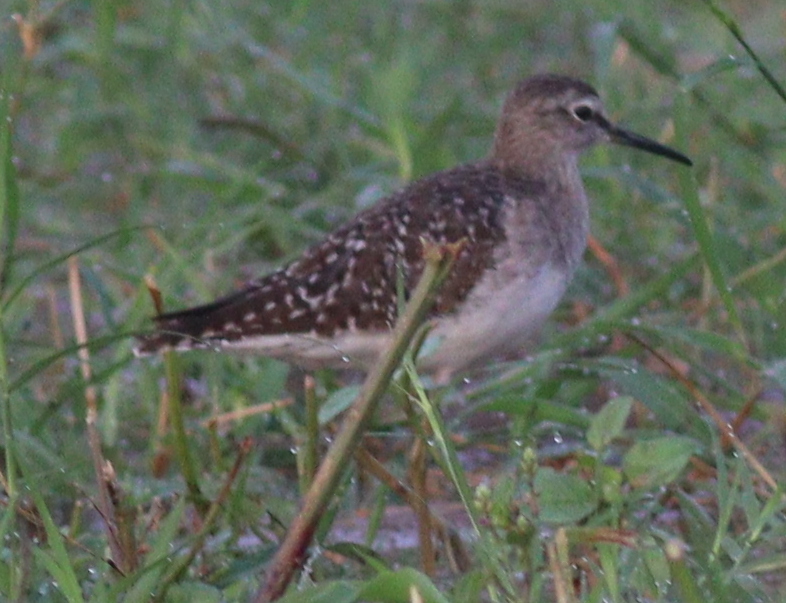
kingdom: Animalia
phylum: Chordata
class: Aves
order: Charadriiformes
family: Scolopacidae
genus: Tringa
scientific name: Tringa glareola
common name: Wood sandpiper
